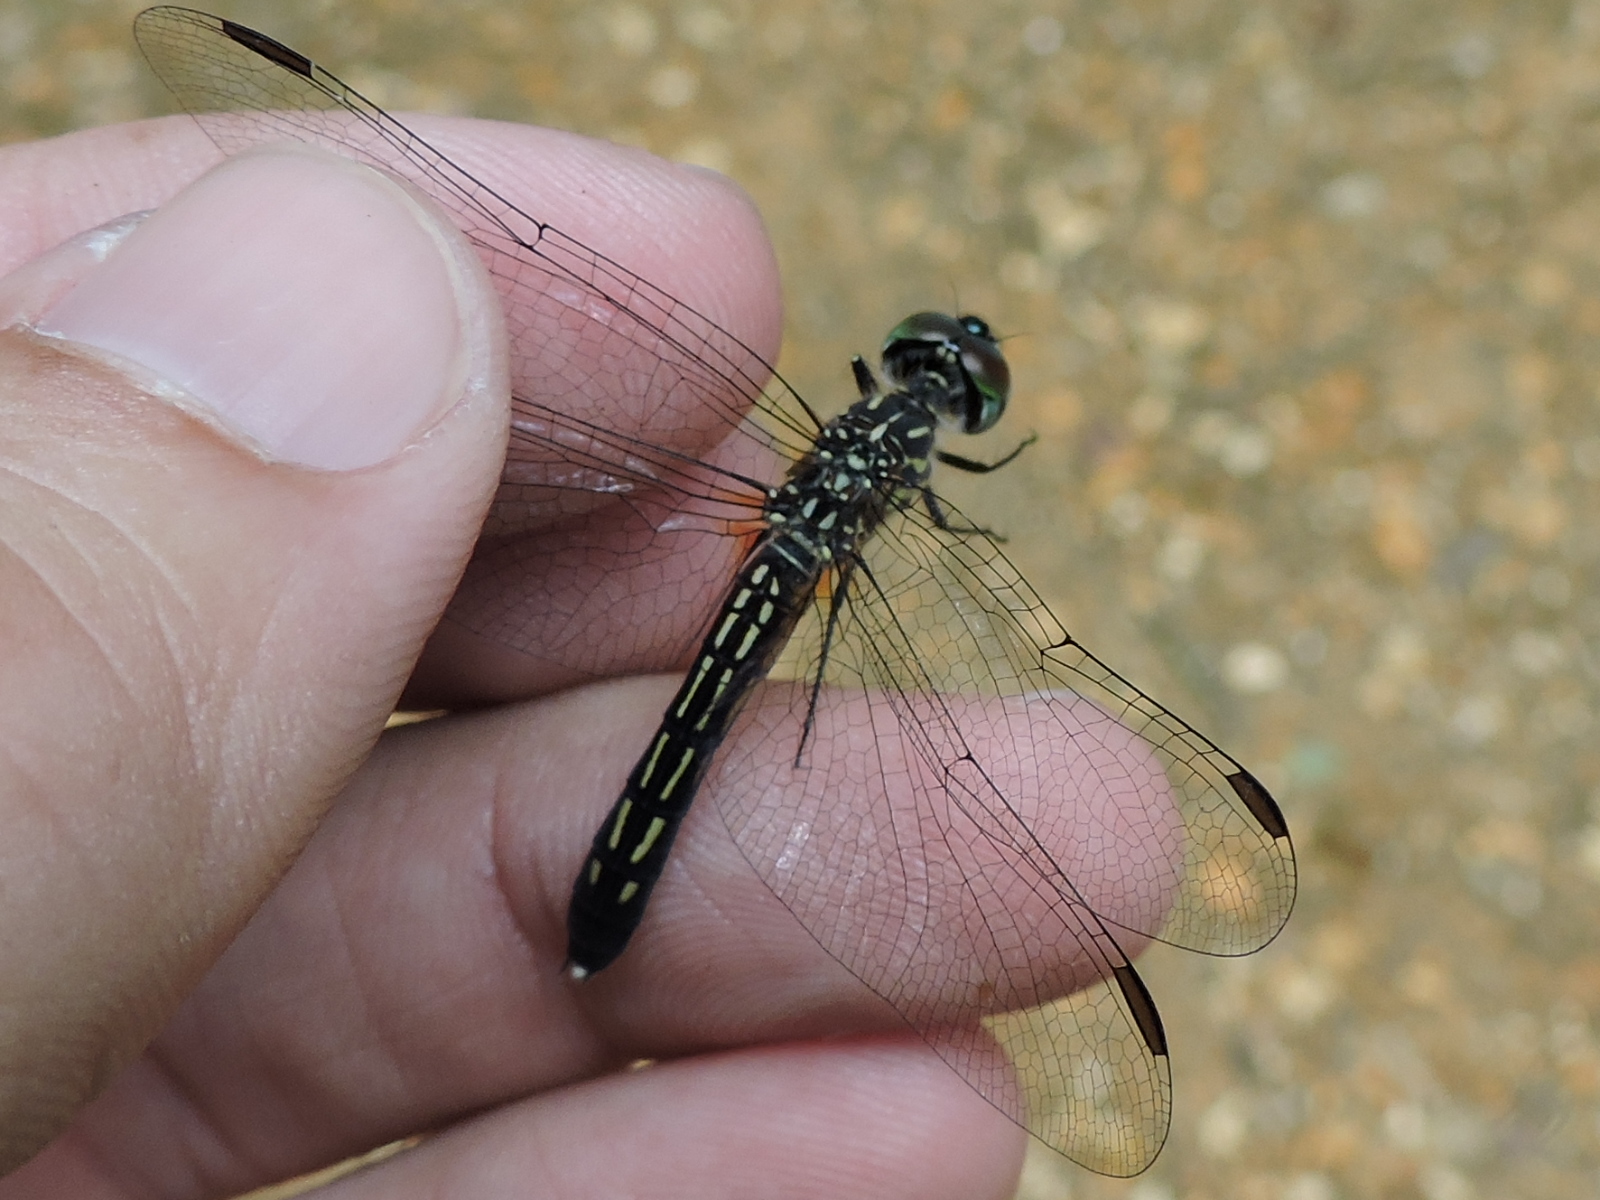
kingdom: Animalia
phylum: Arthropoda
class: Insecta
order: Odonata
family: Libellulidae
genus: Pachydiplax
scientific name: Pachydiplax longipennis
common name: Blue dasher
